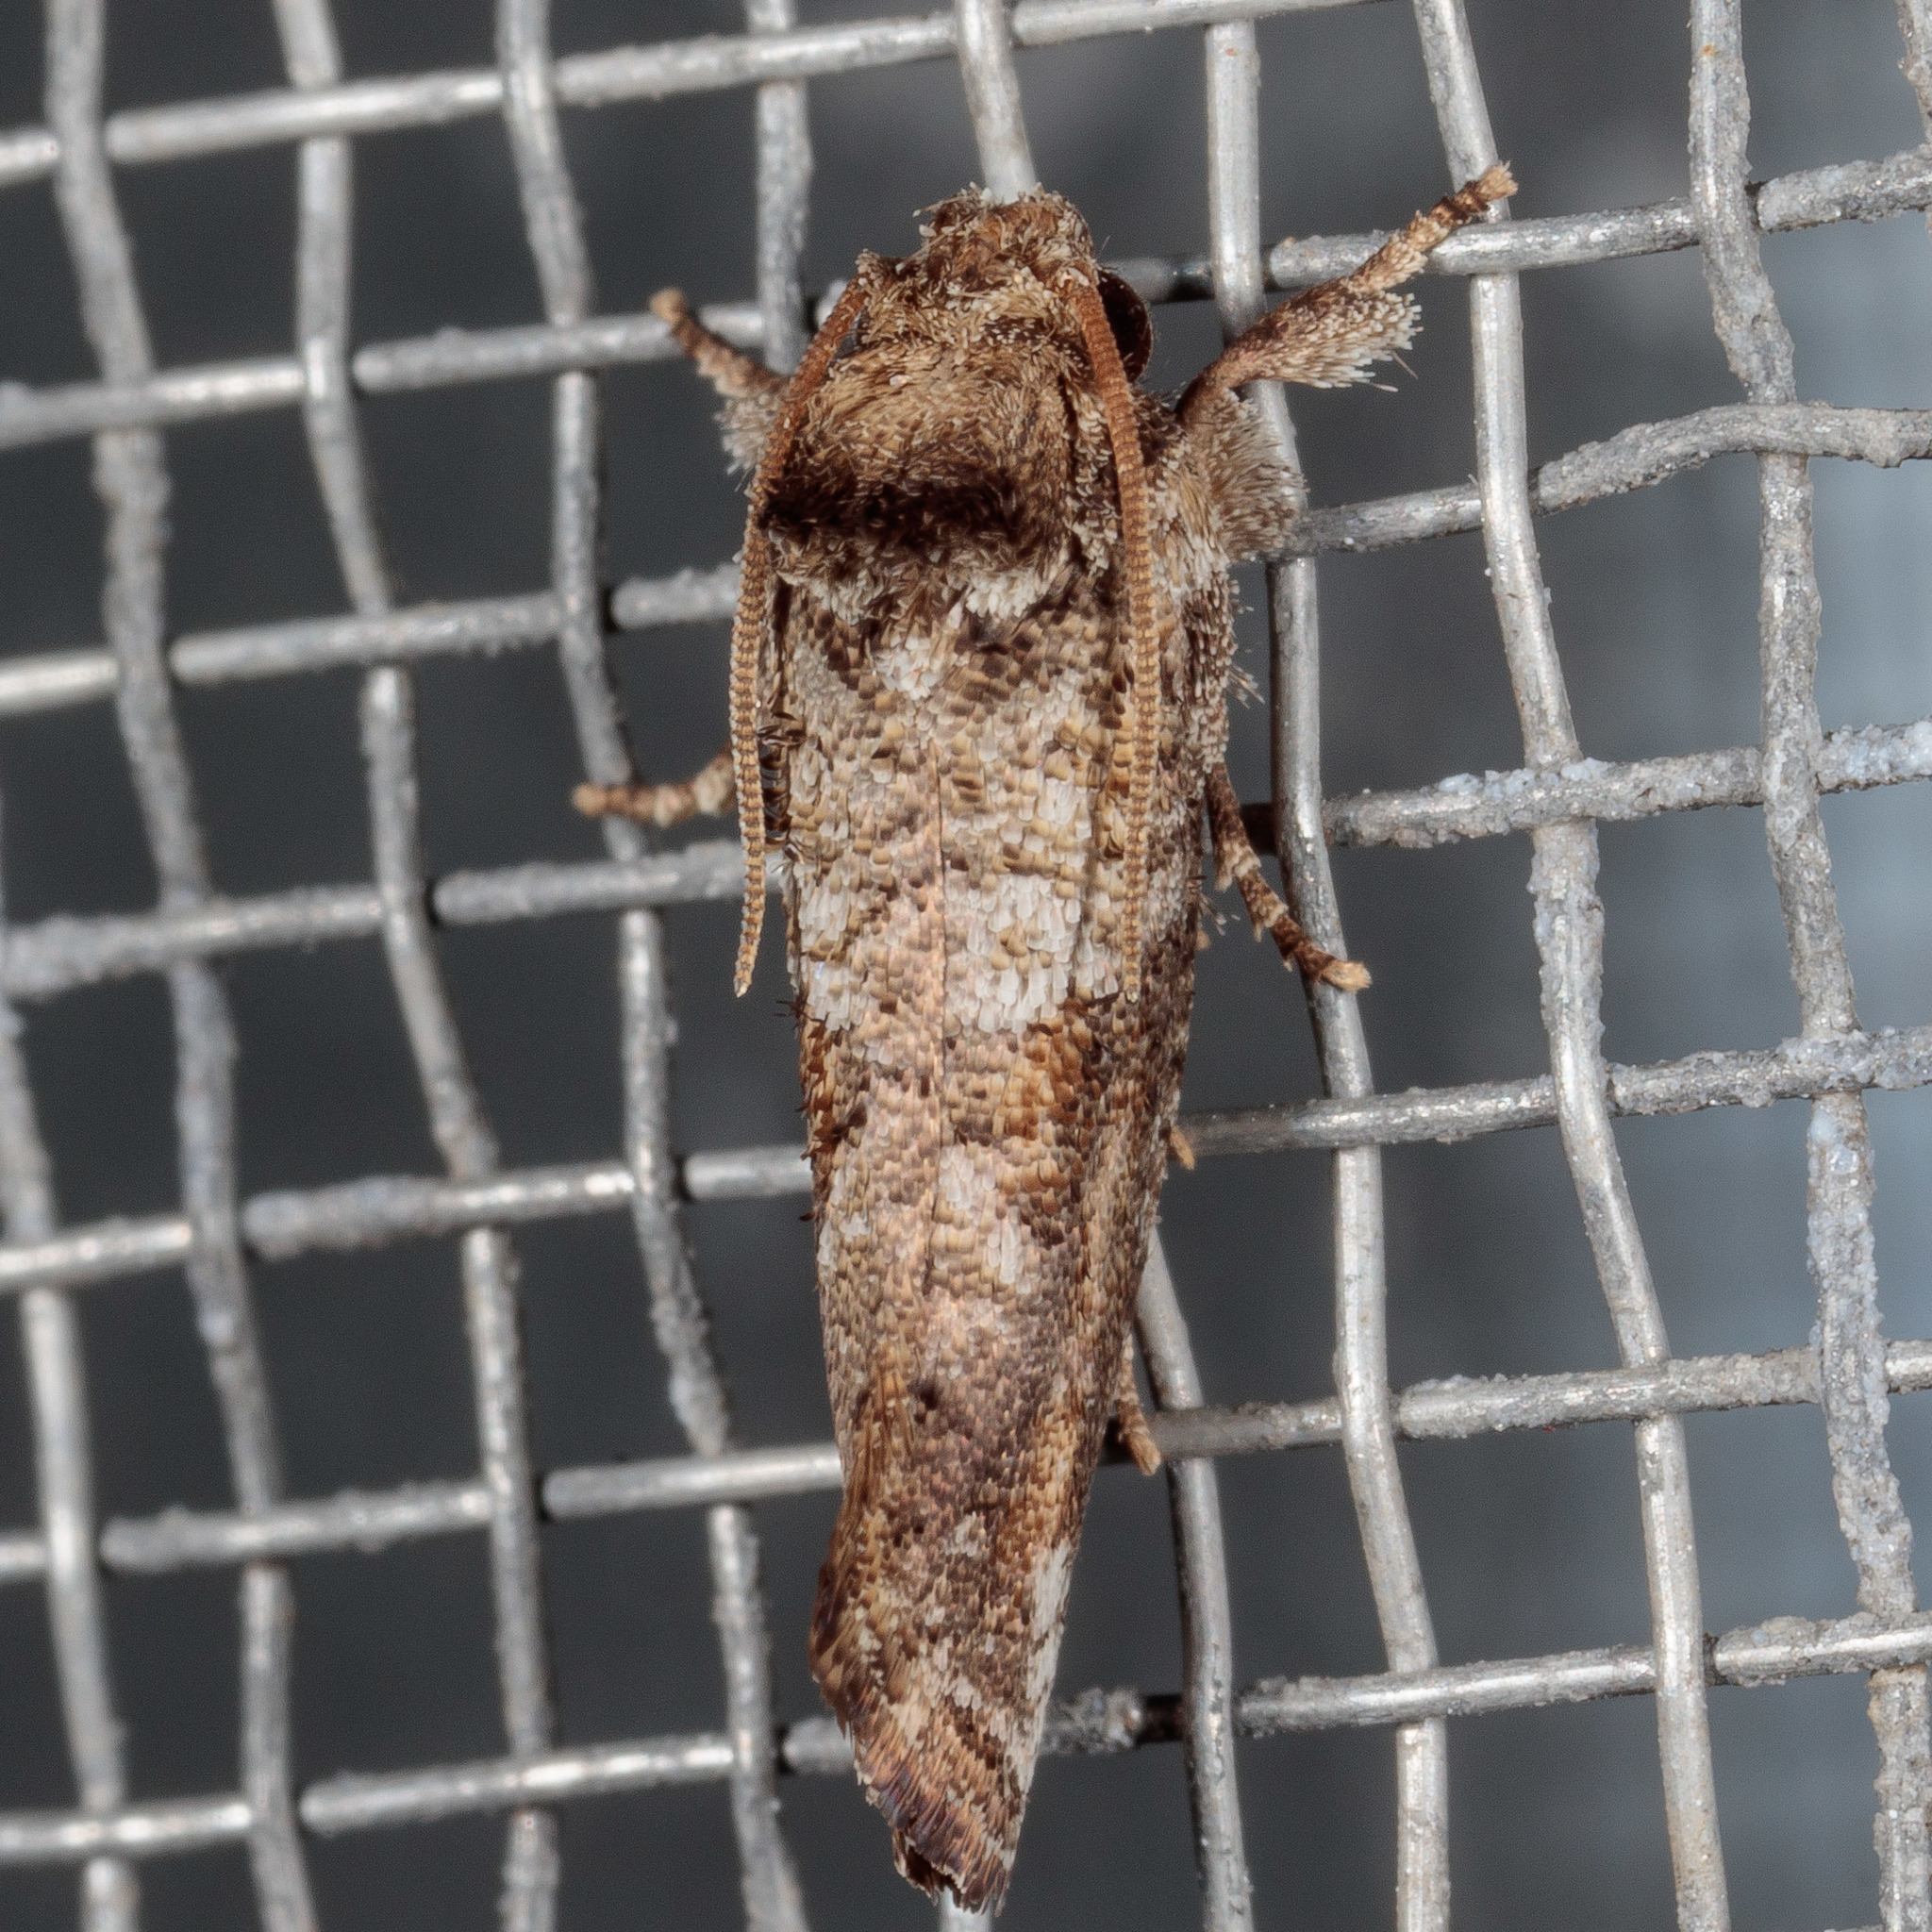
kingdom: Animalia
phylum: Arthropoda
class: Insecta
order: Lepidoptera
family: Tineidae
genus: Acrolophus
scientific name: Acrolophus piger
